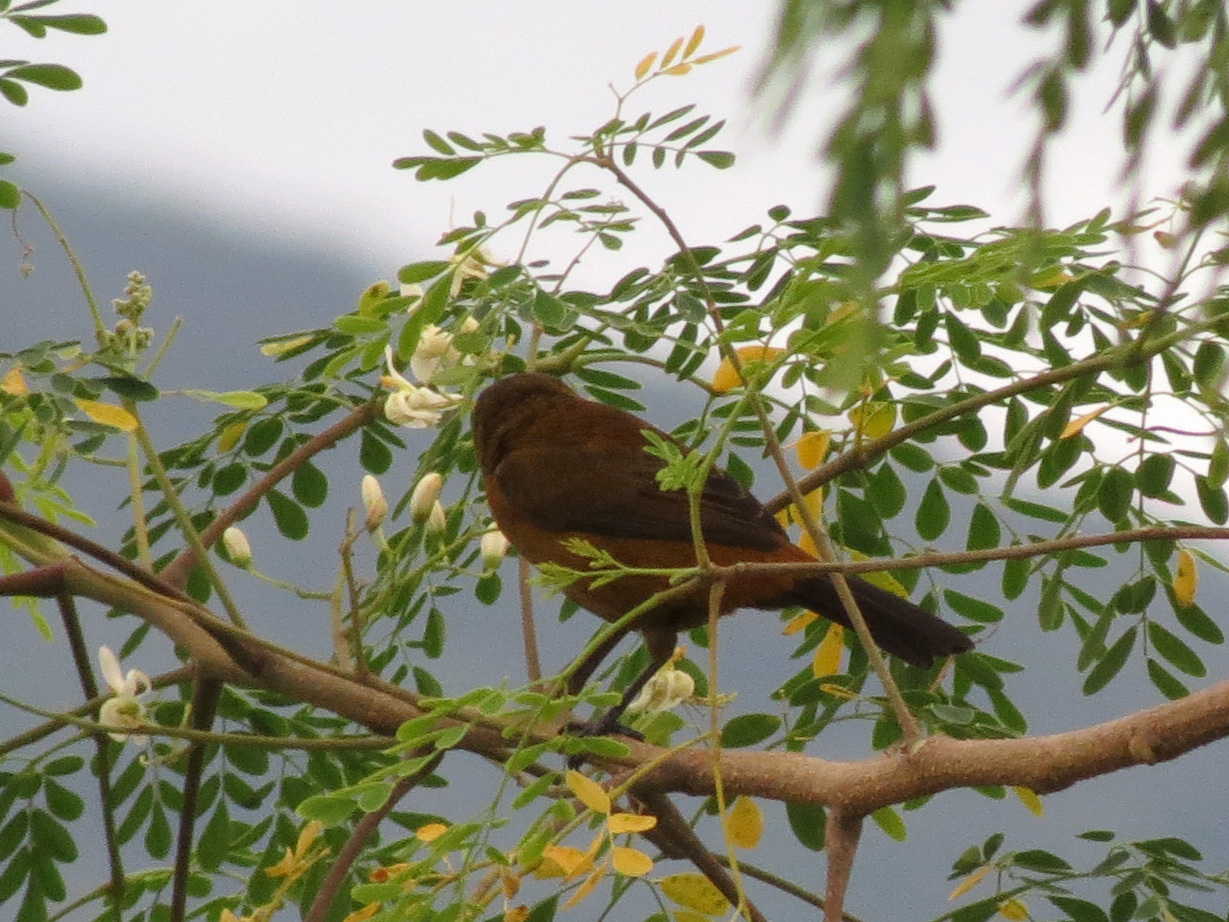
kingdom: Animalia
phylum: Chordata
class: Aves
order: Passeriformes
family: Thraupidae
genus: Ramphocelus
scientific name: Ramphocelus passerinii
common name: Passerini's tanager
